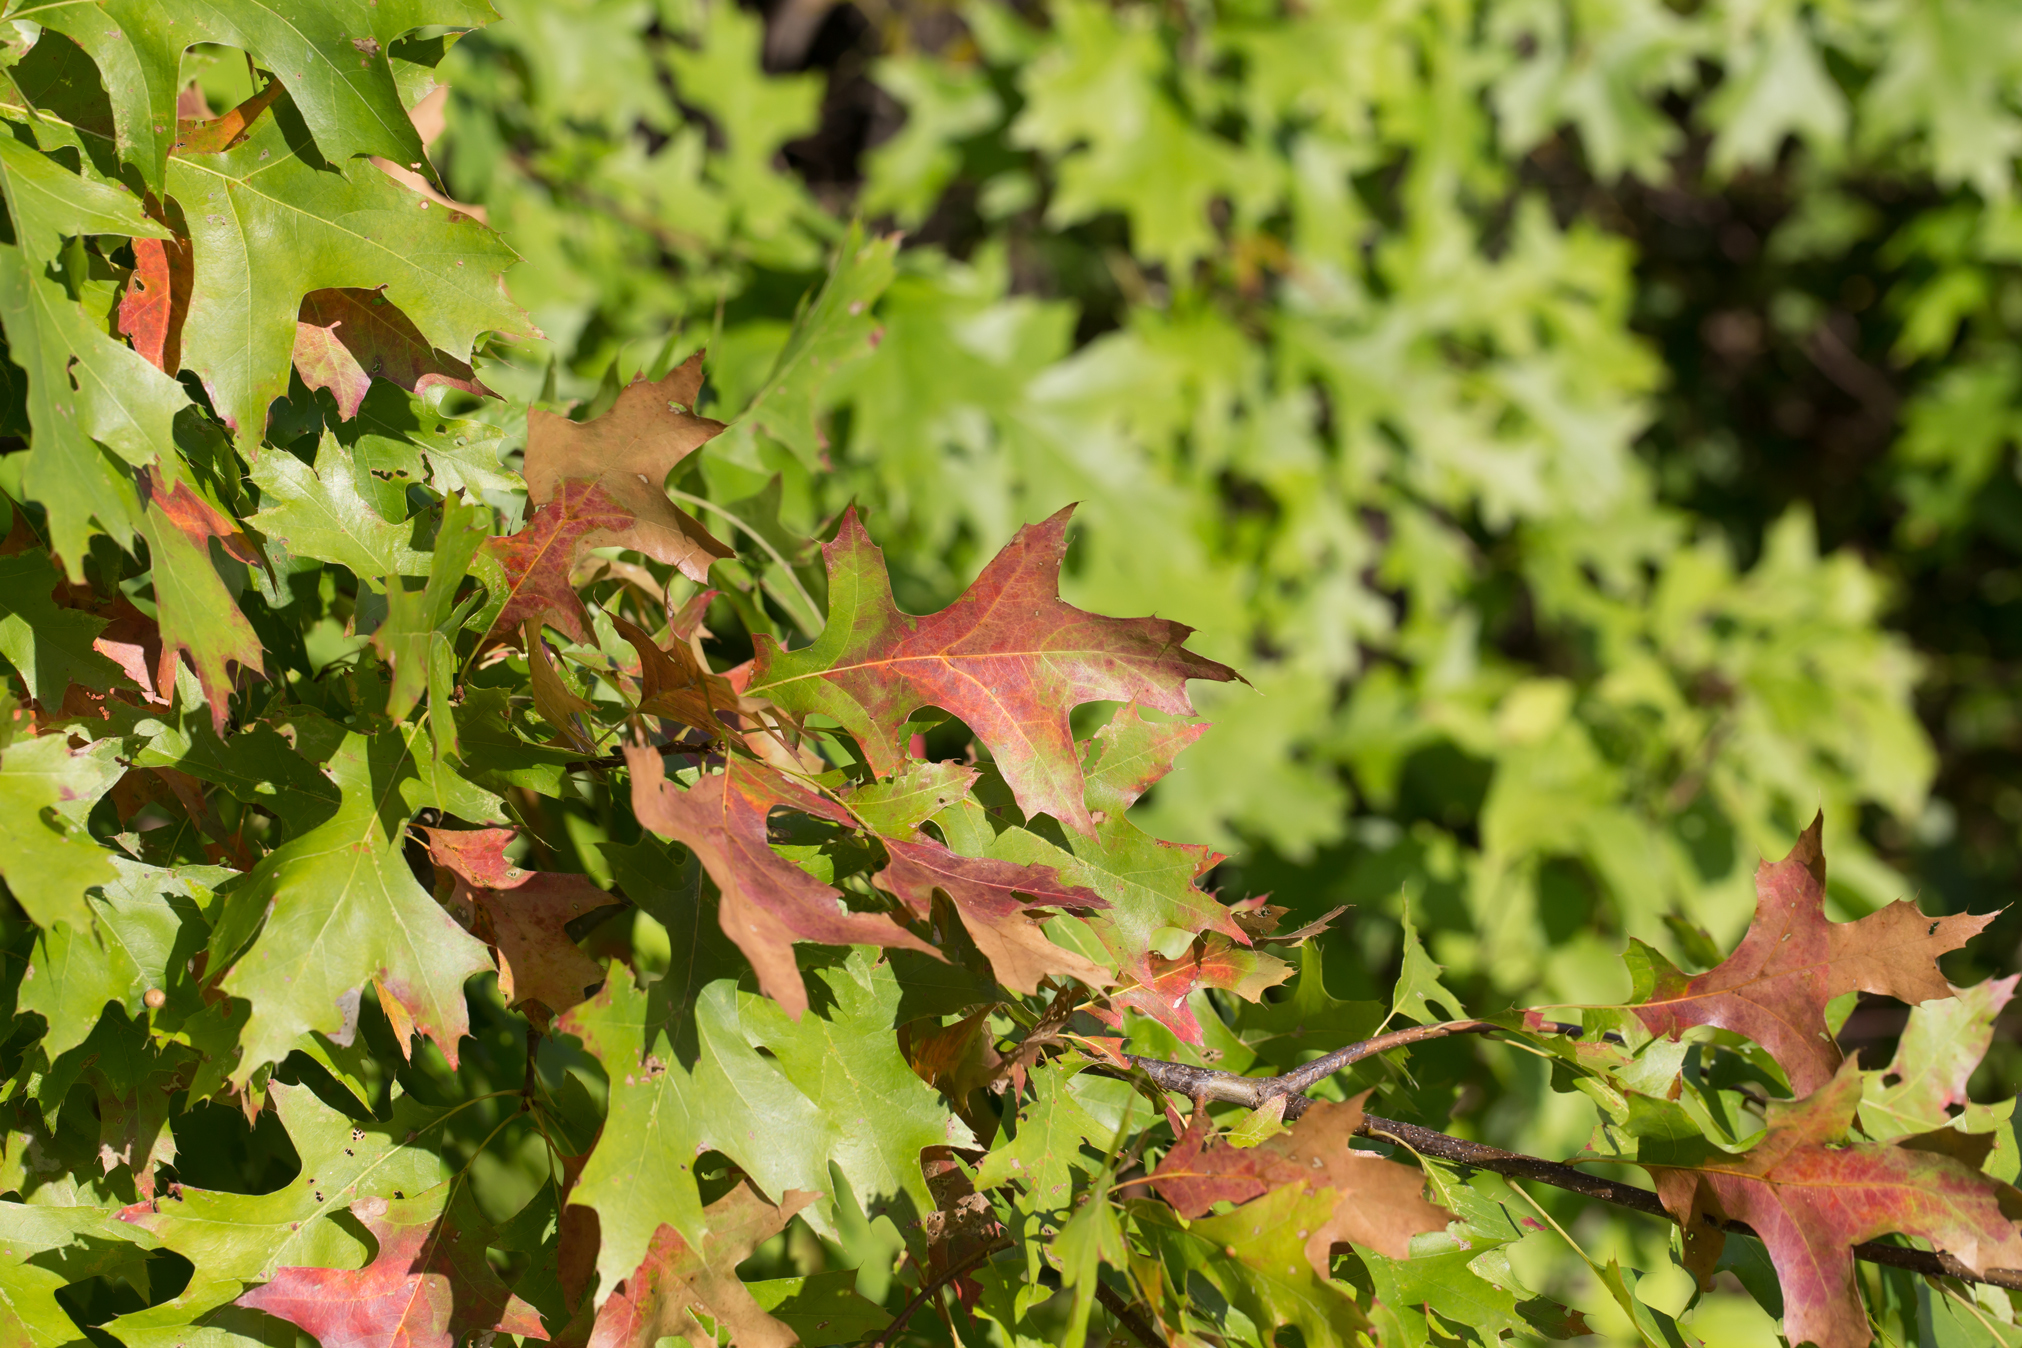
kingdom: Plantae
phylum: Tracheophyta
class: Magnoliopsida
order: Fagales
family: Fagaceae
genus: Quercus
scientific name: Quercus palustris
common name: Pin oak
